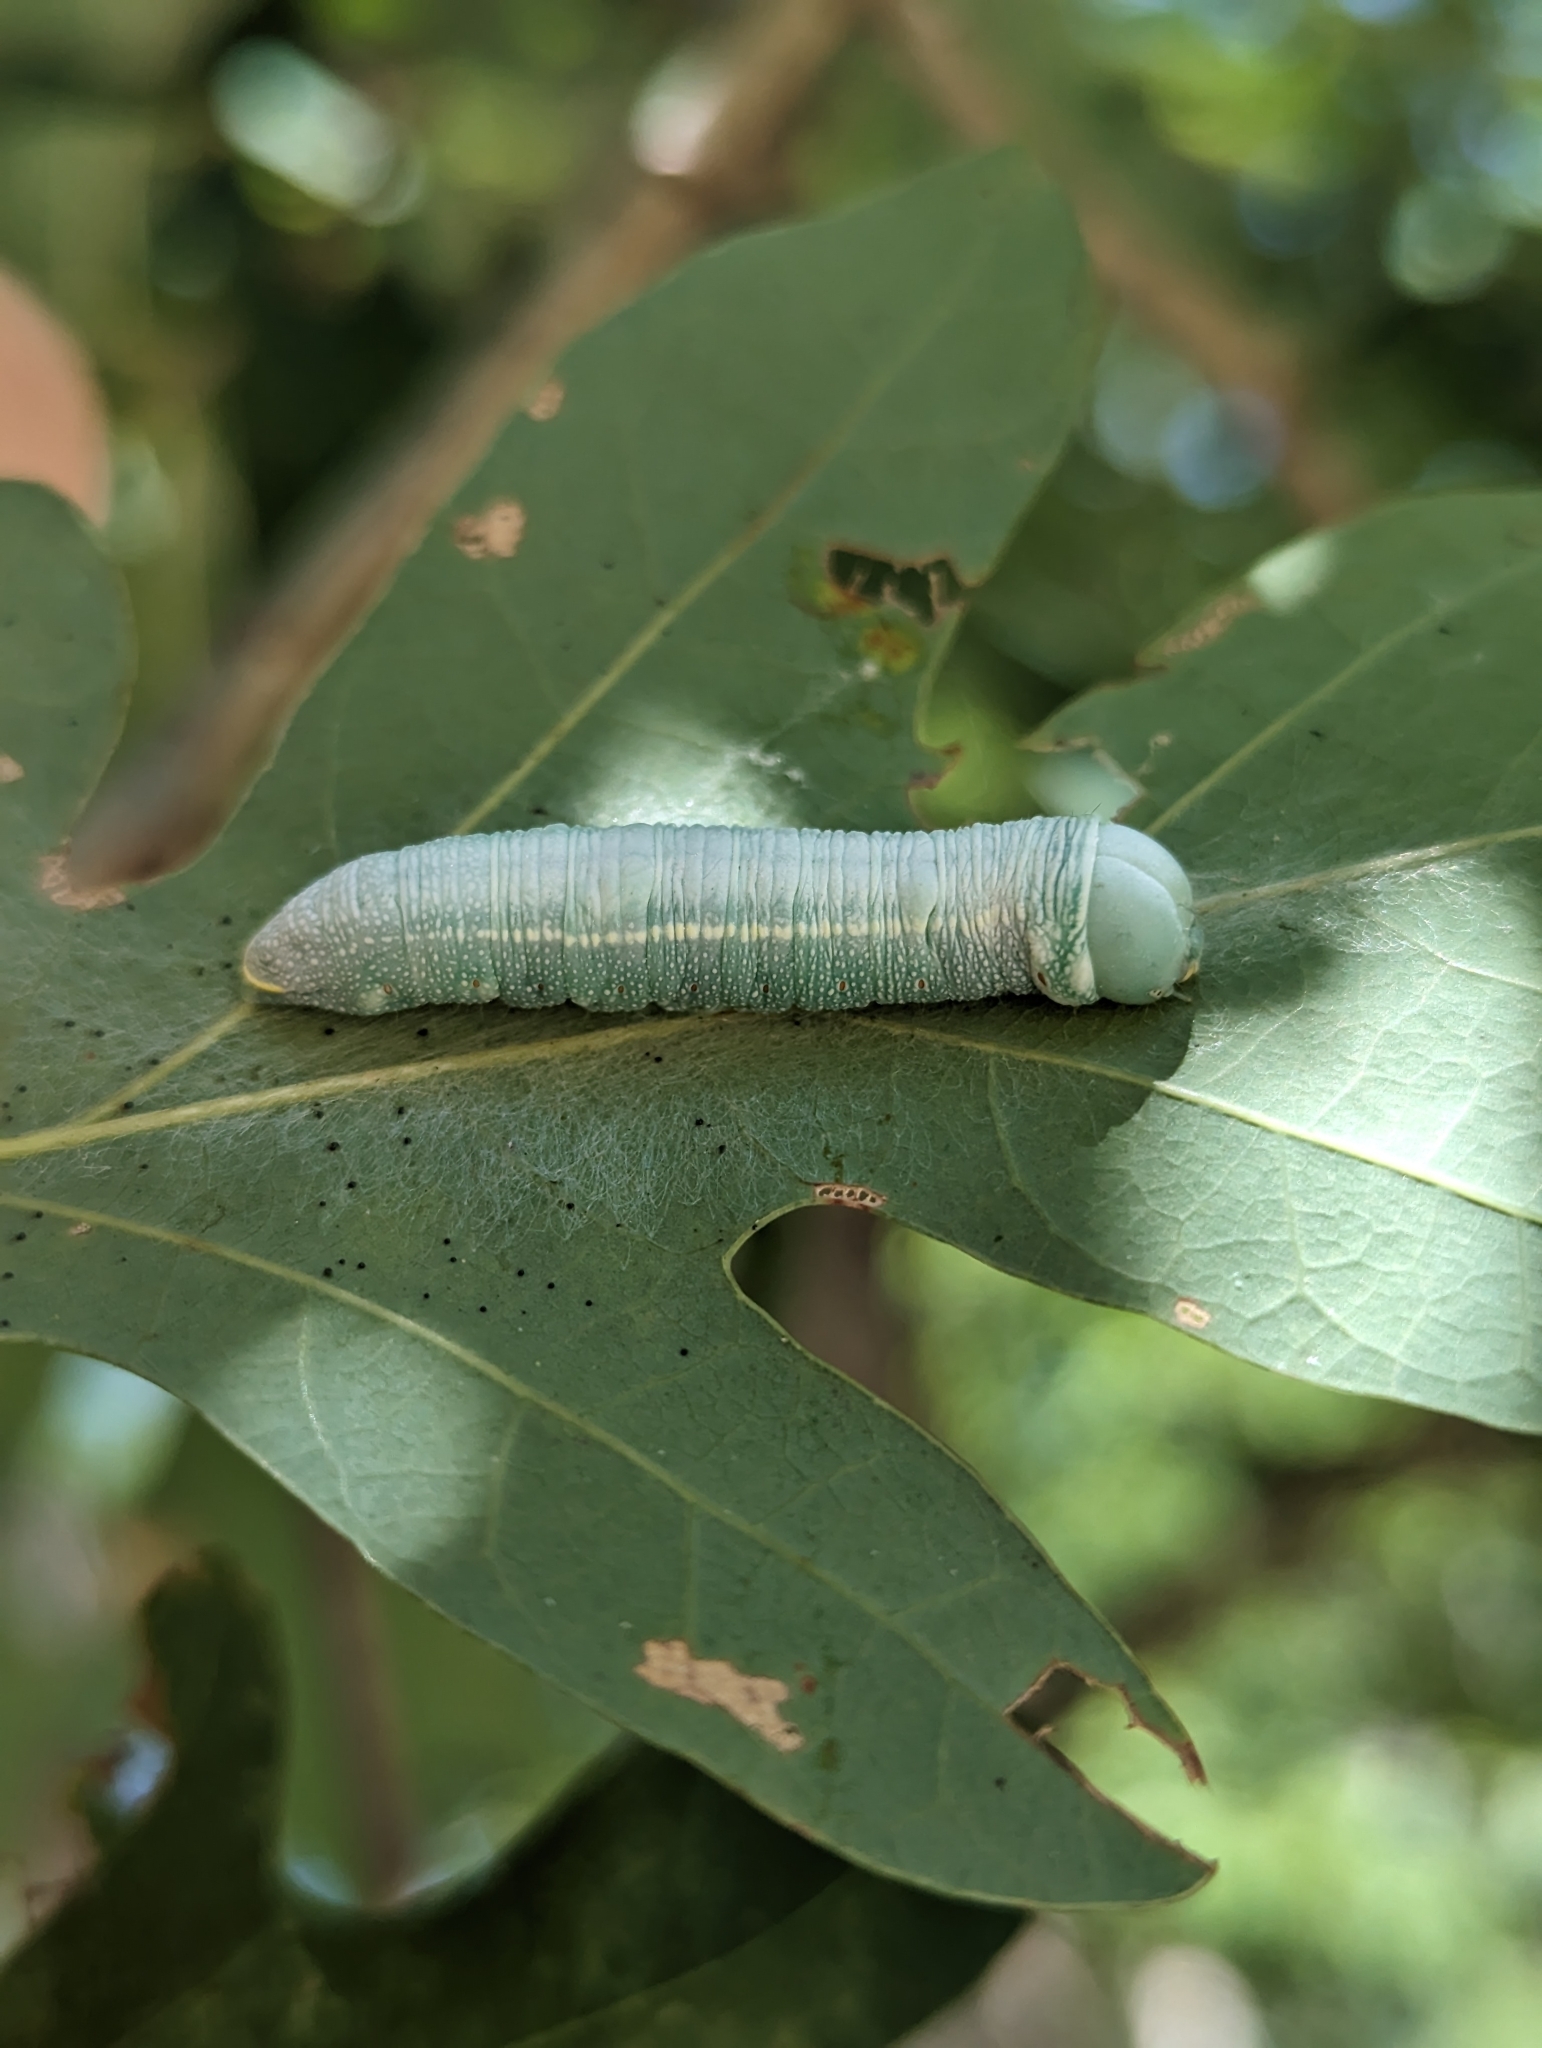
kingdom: Animalia
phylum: Arthropoda
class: Insecta
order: Lepidoptera
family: Notodontidae
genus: Nadata
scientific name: Nadata gibbosa
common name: White-dotted prominent
